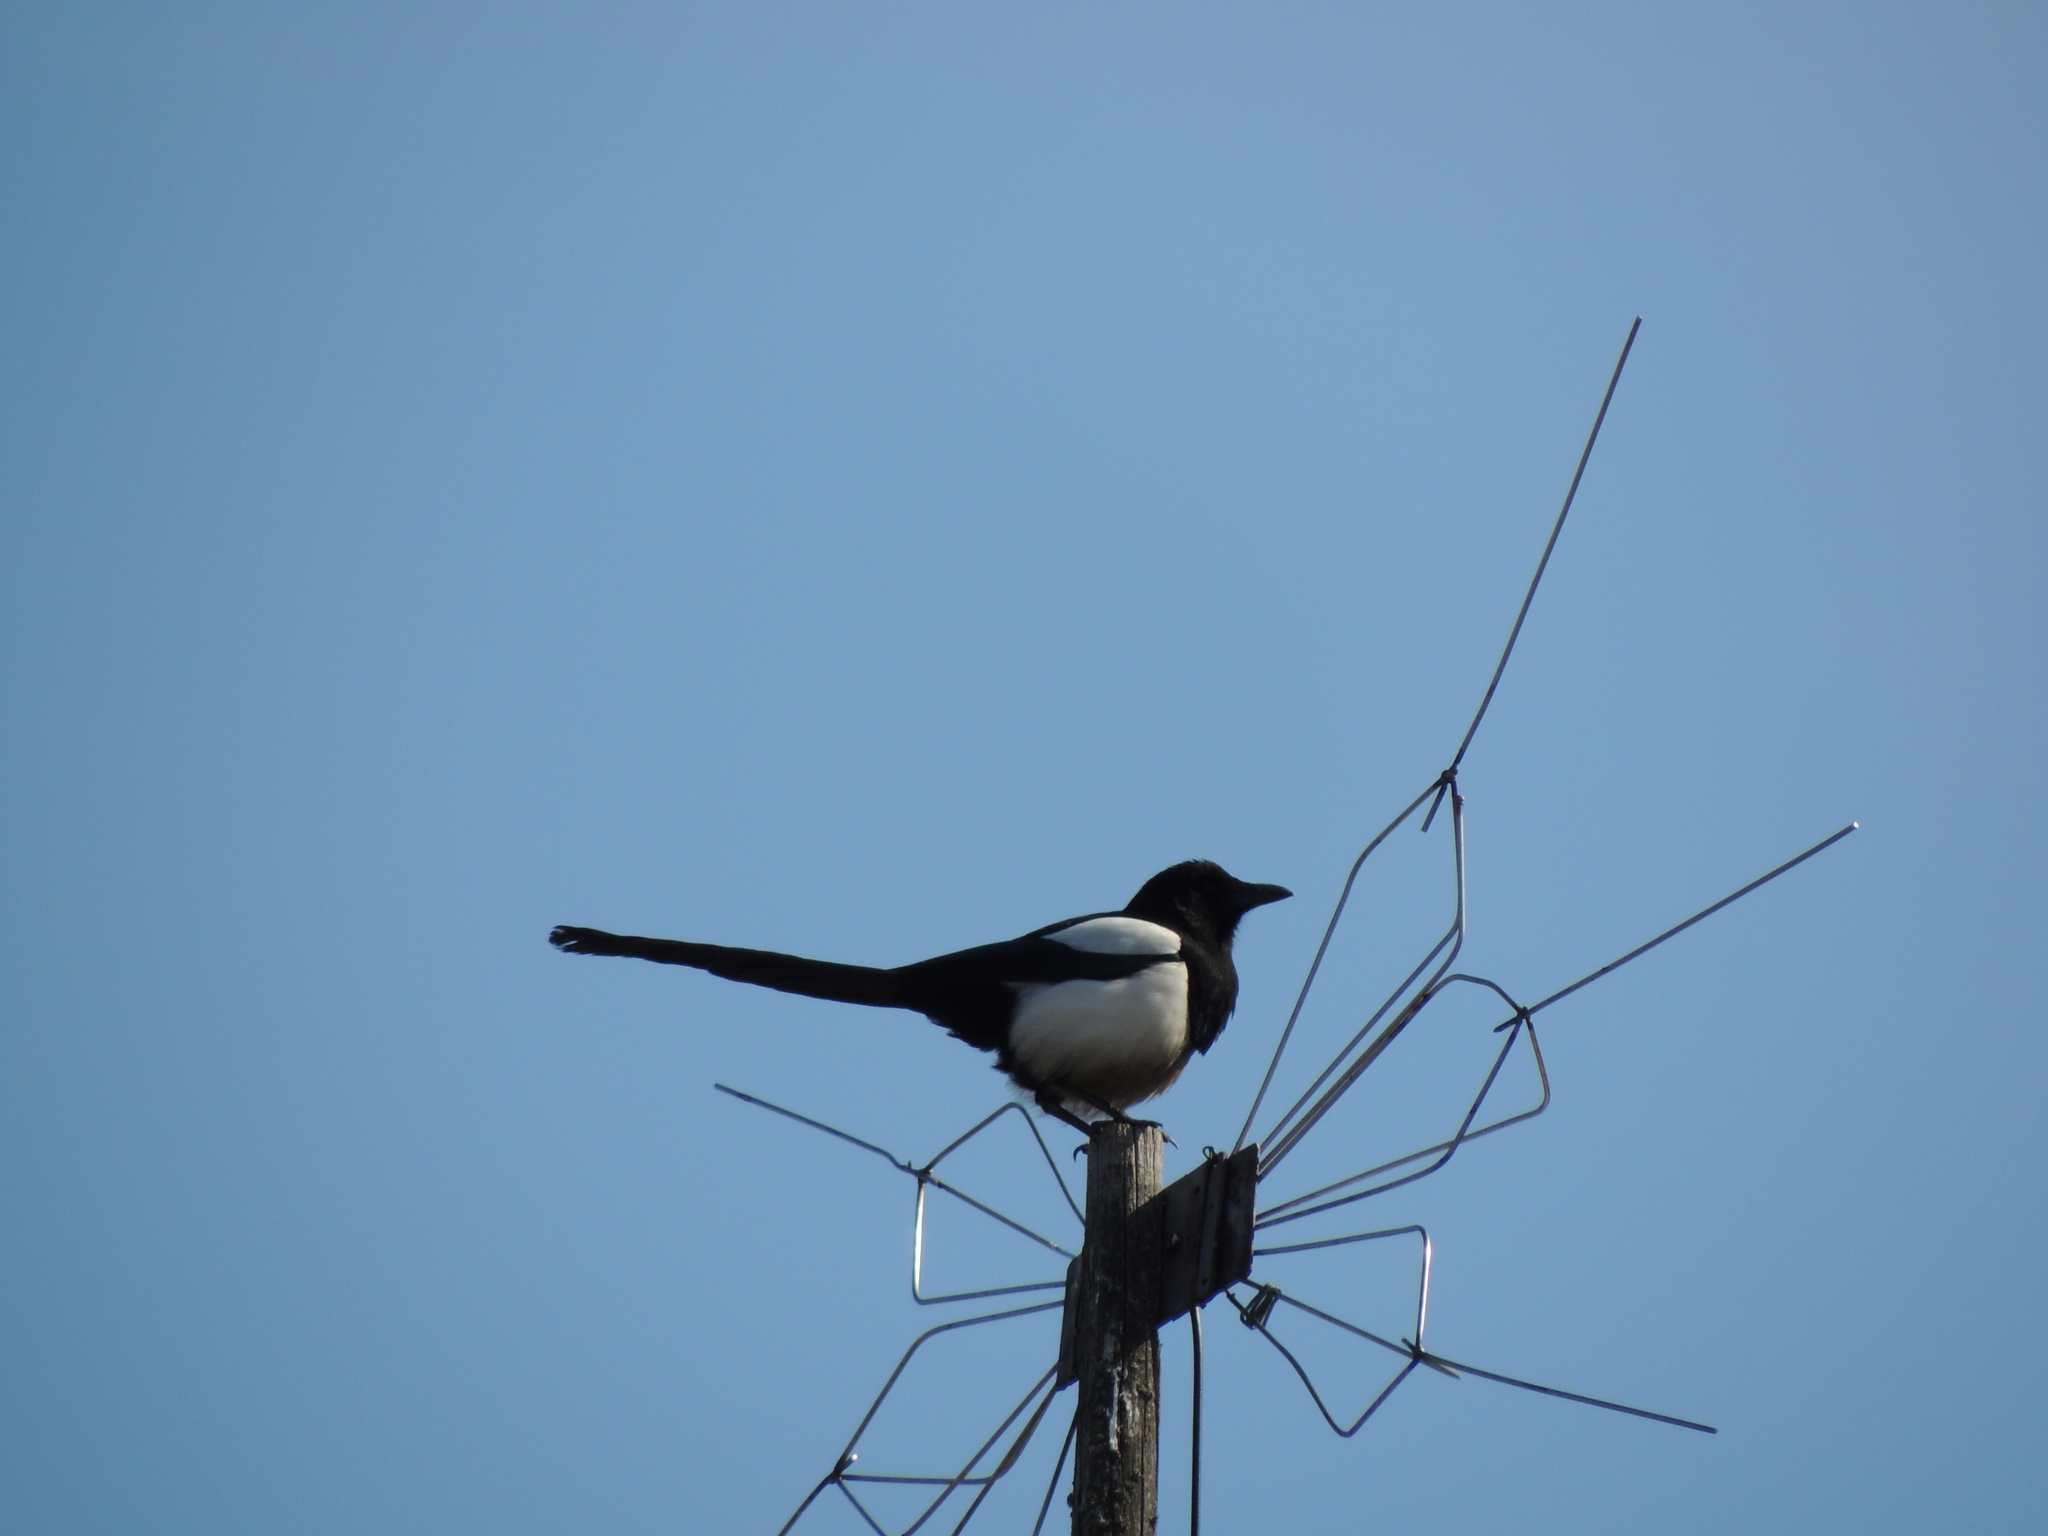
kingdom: Animalia
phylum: Chordata
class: Aves
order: Passeriformes
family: Corvidae
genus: Pica
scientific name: Pica pica
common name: Eurasian magpie
